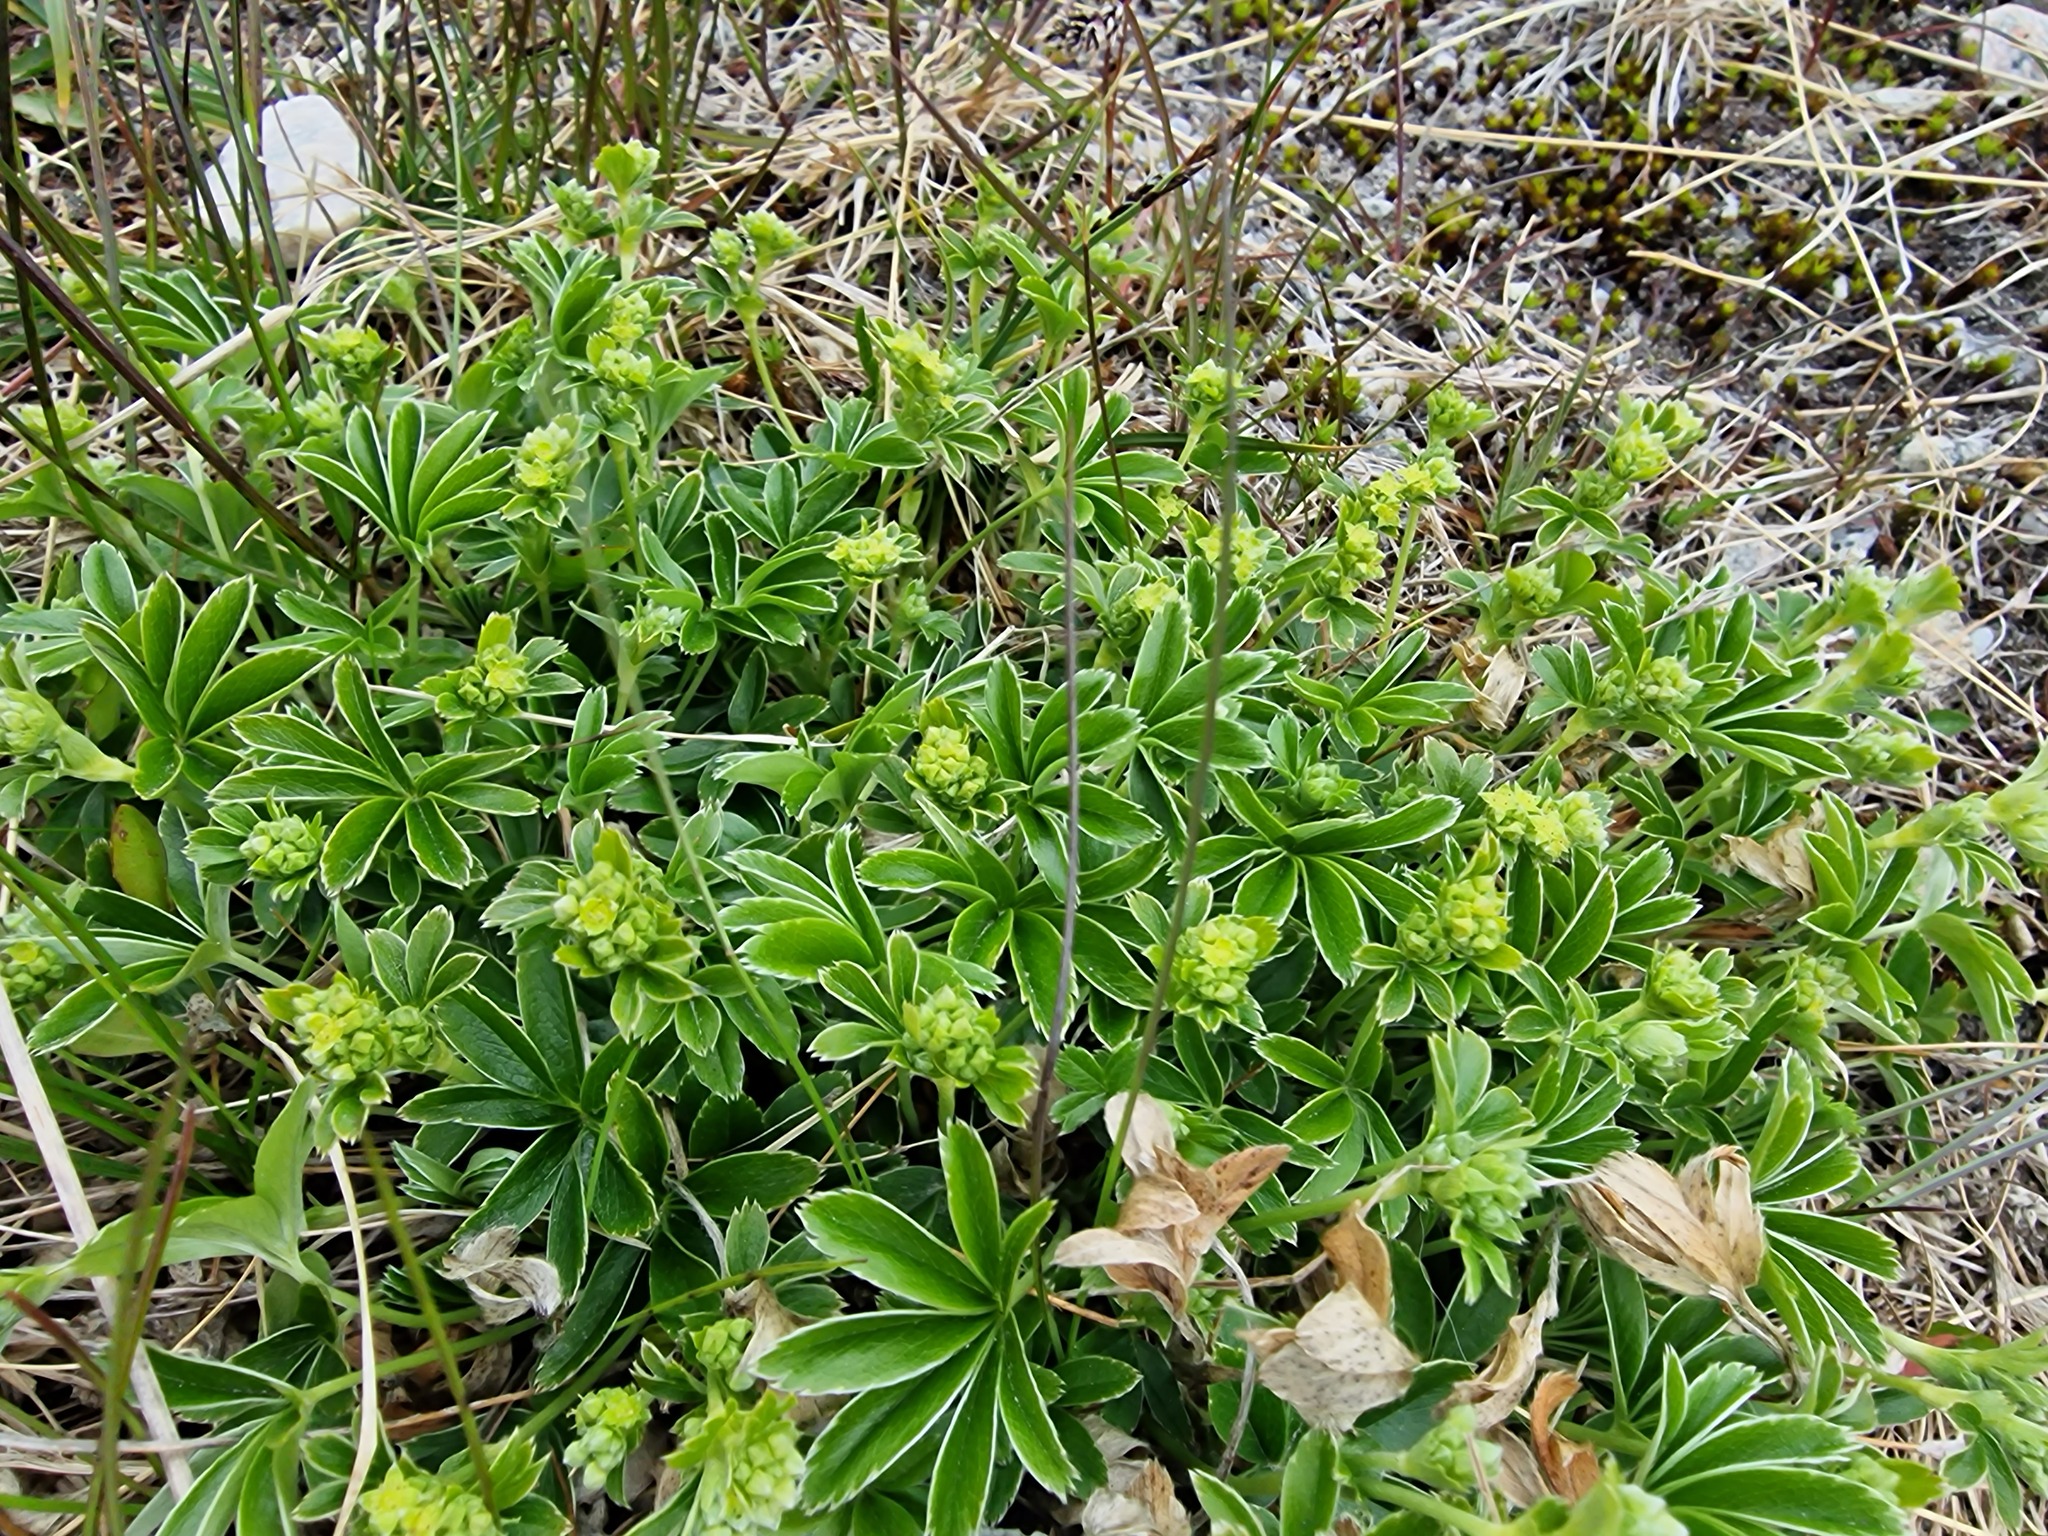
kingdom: Plantae
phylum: Tracheophyta
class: Magnoliopsida
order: Rosales
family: Rosaceae
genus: Alchemilla
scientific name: Alchemilla alpina
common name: Alpine lady's-mantle
